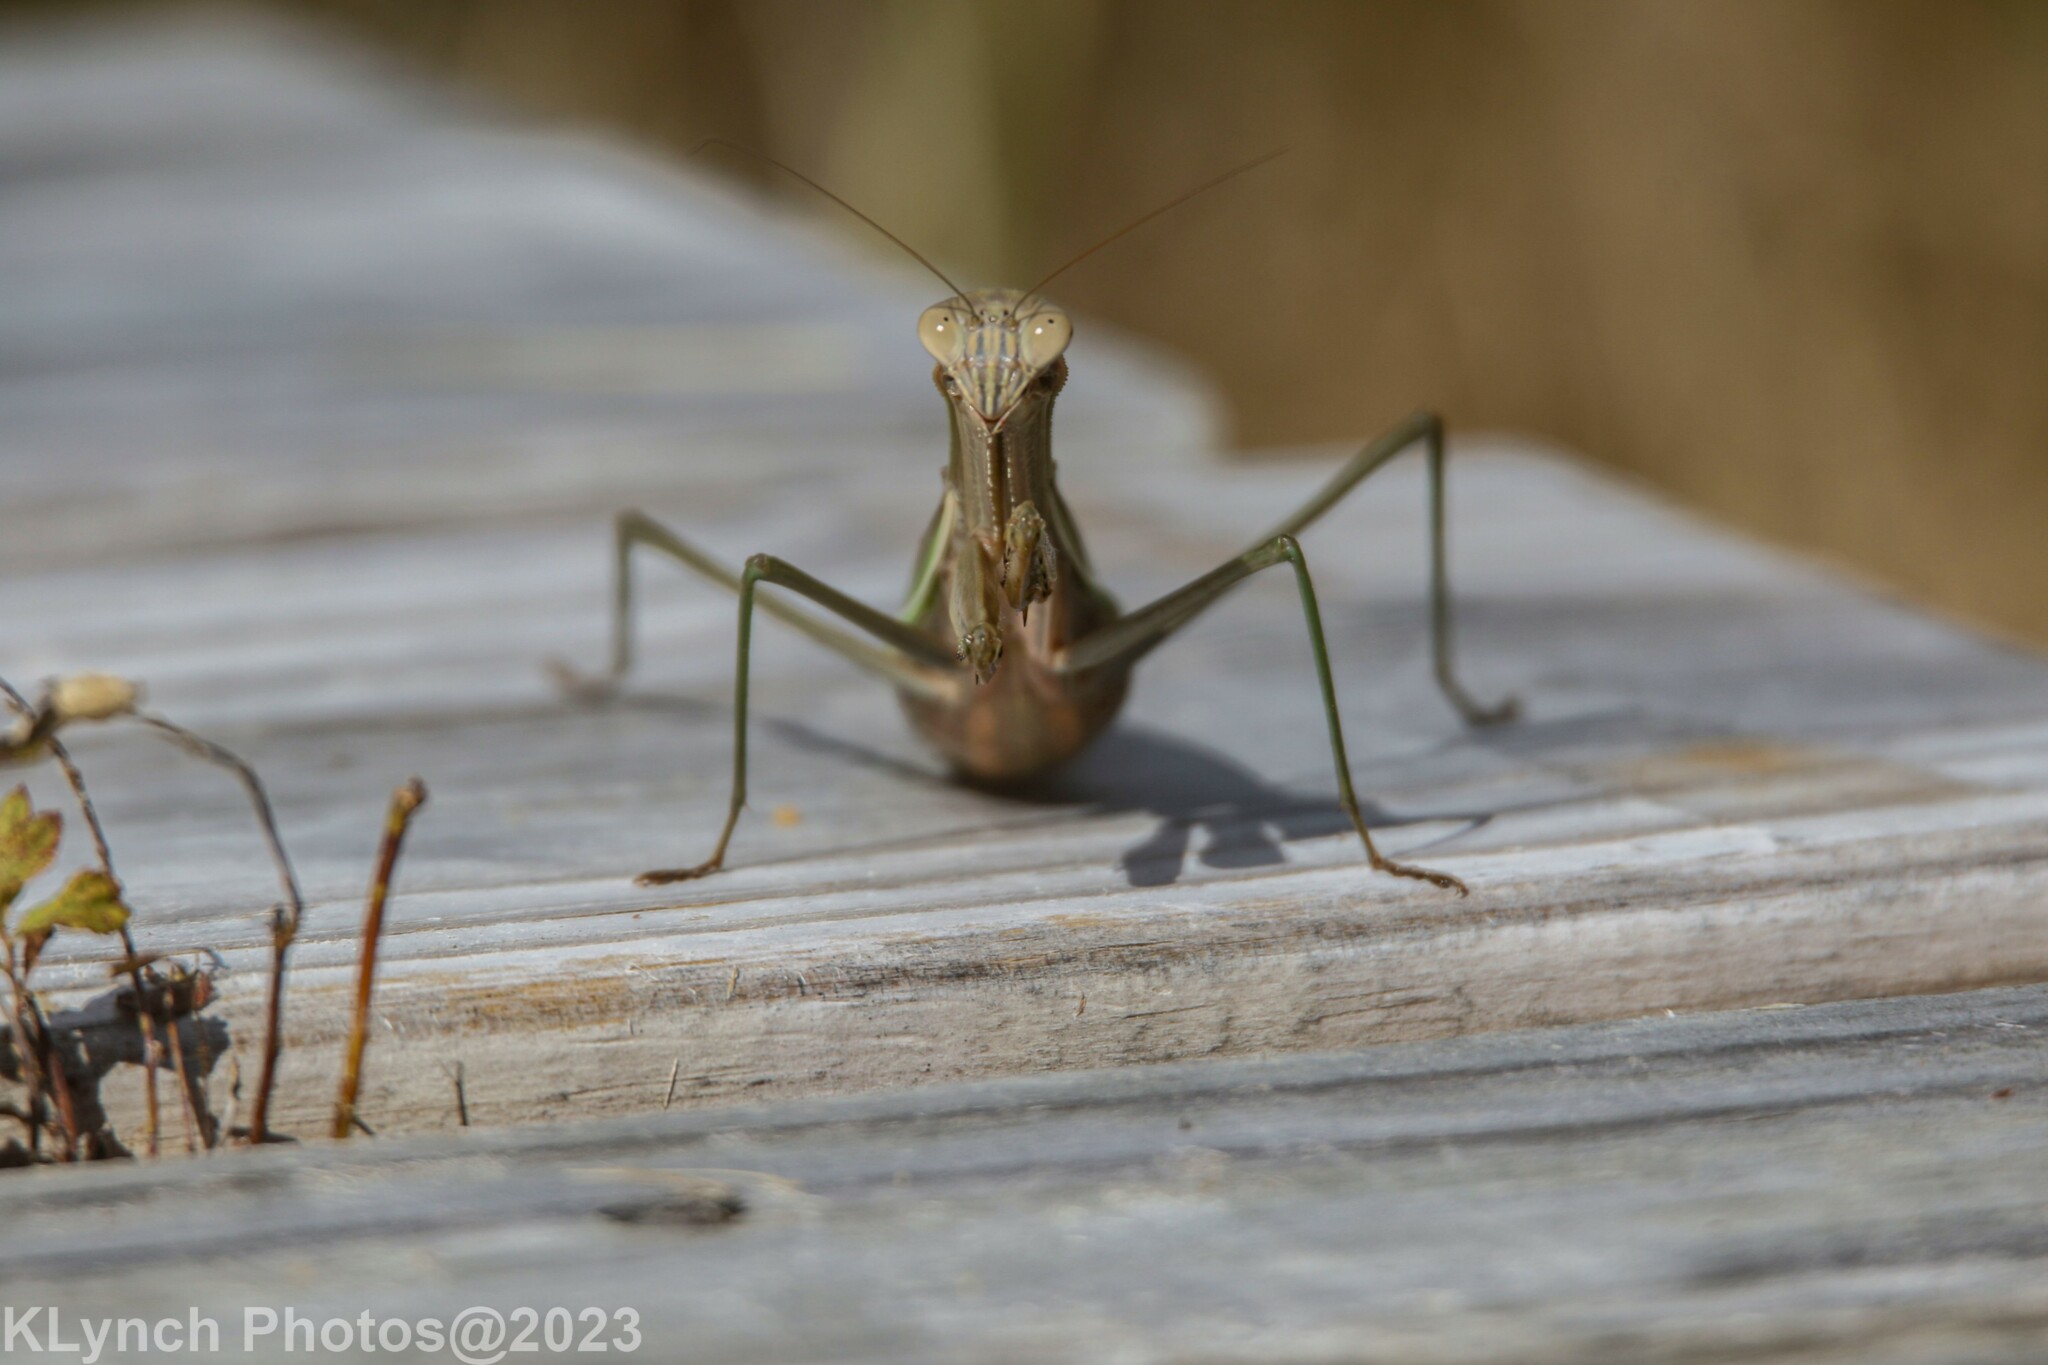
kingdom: Animalia
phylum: Arthropoda
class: Insecta
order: Mantodea
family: Mantidae
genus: Tenodera
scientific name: Tenodera sinensis
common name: Chinese mantis
